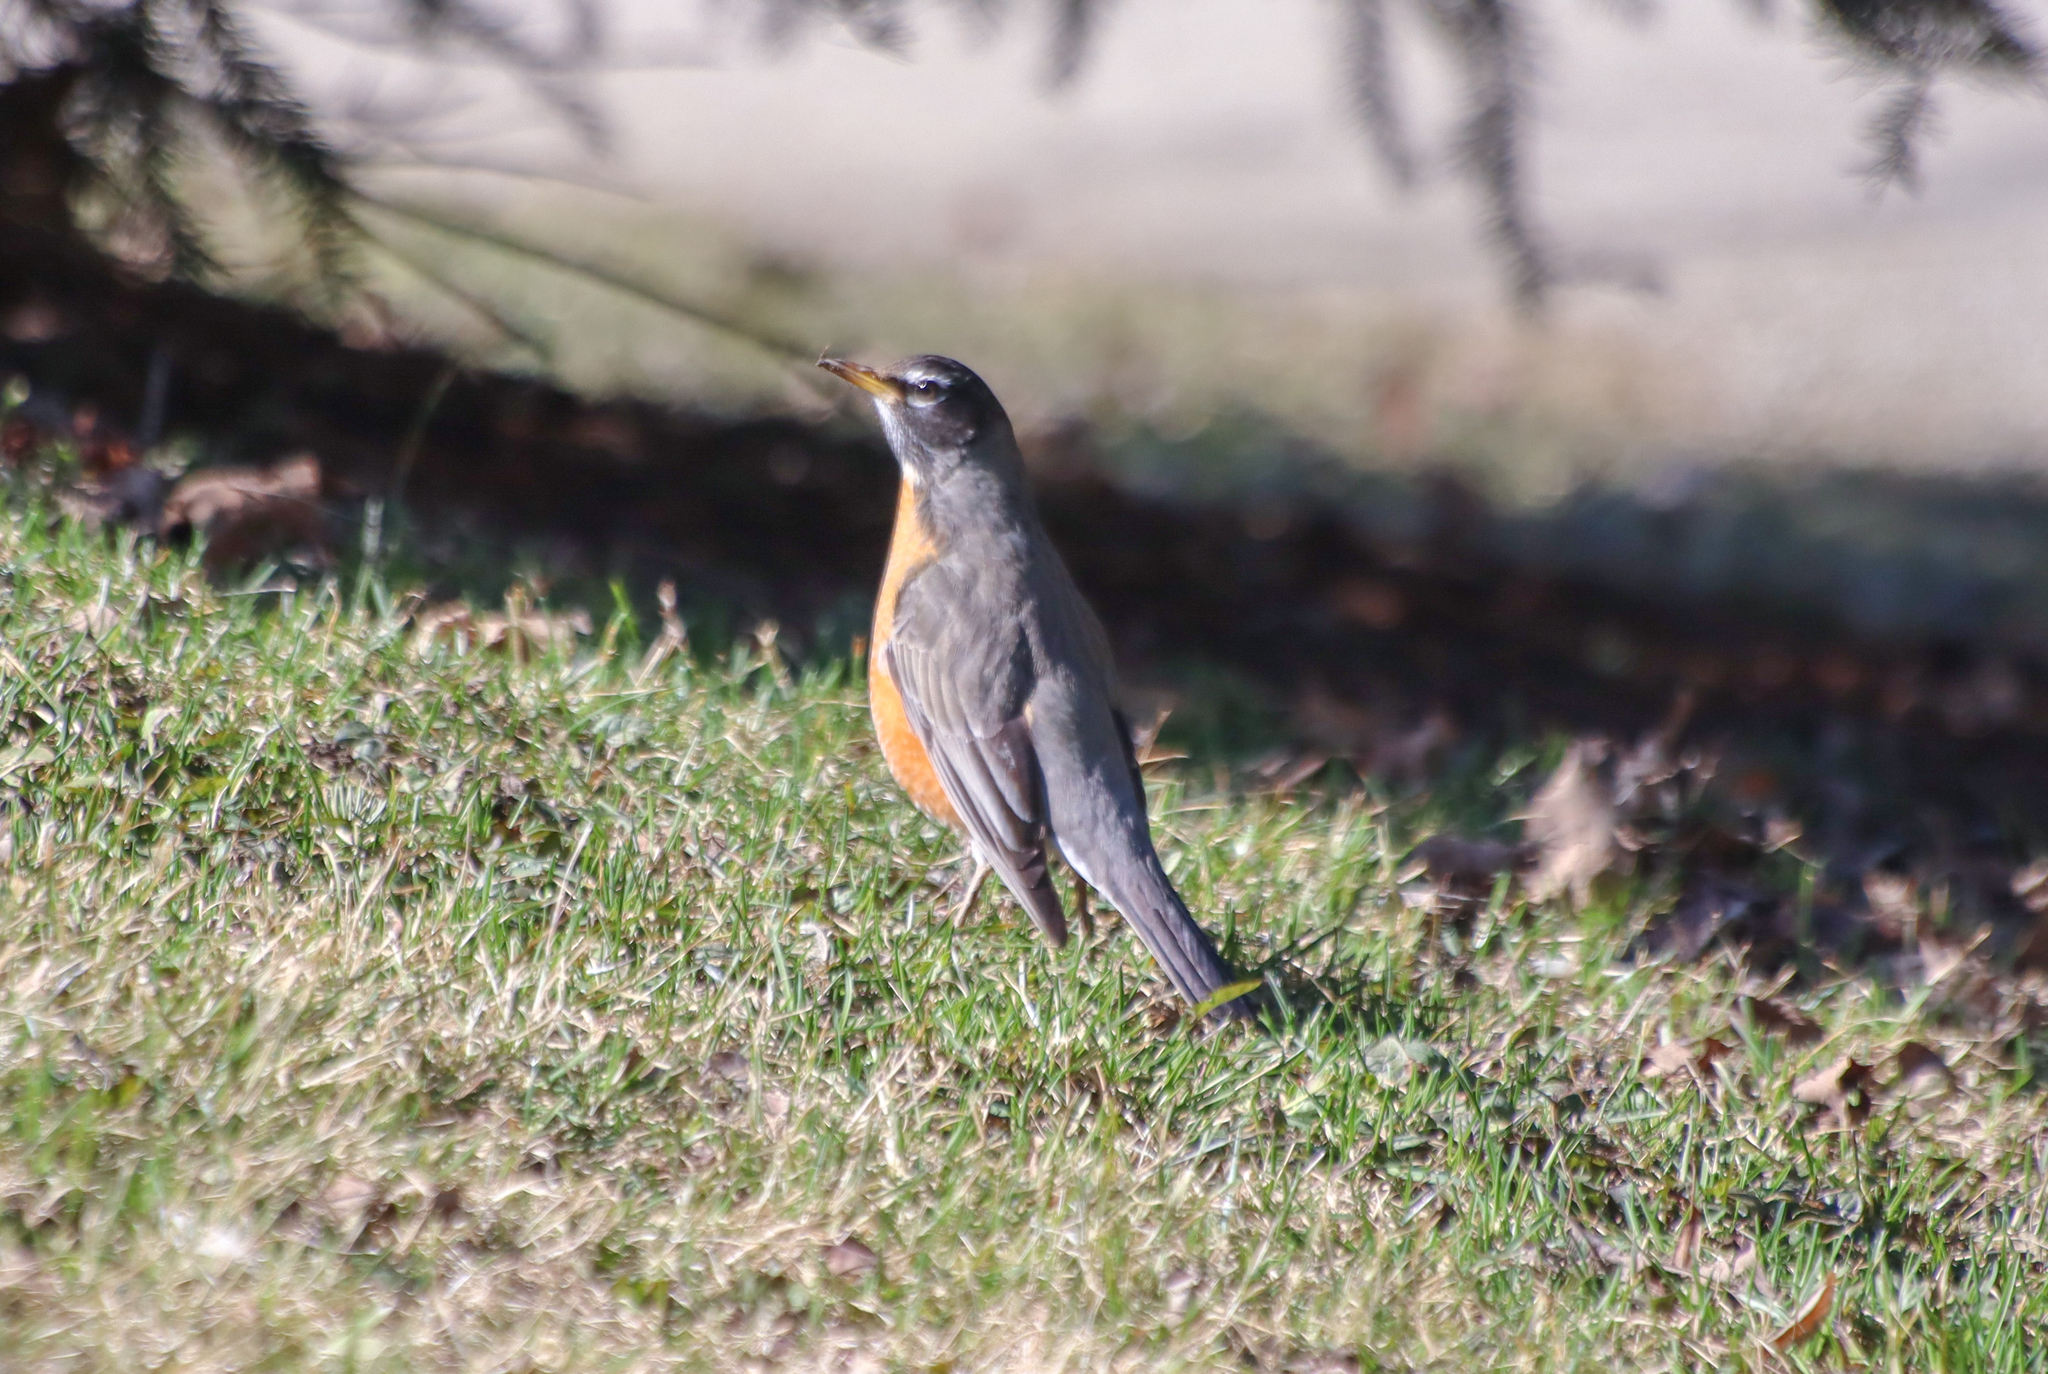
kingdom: Animalia
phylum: Chordata
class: Aves
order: Passeriformes
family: Turdidae
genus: Turdus
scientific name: Turdus migratorius
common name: American robin
